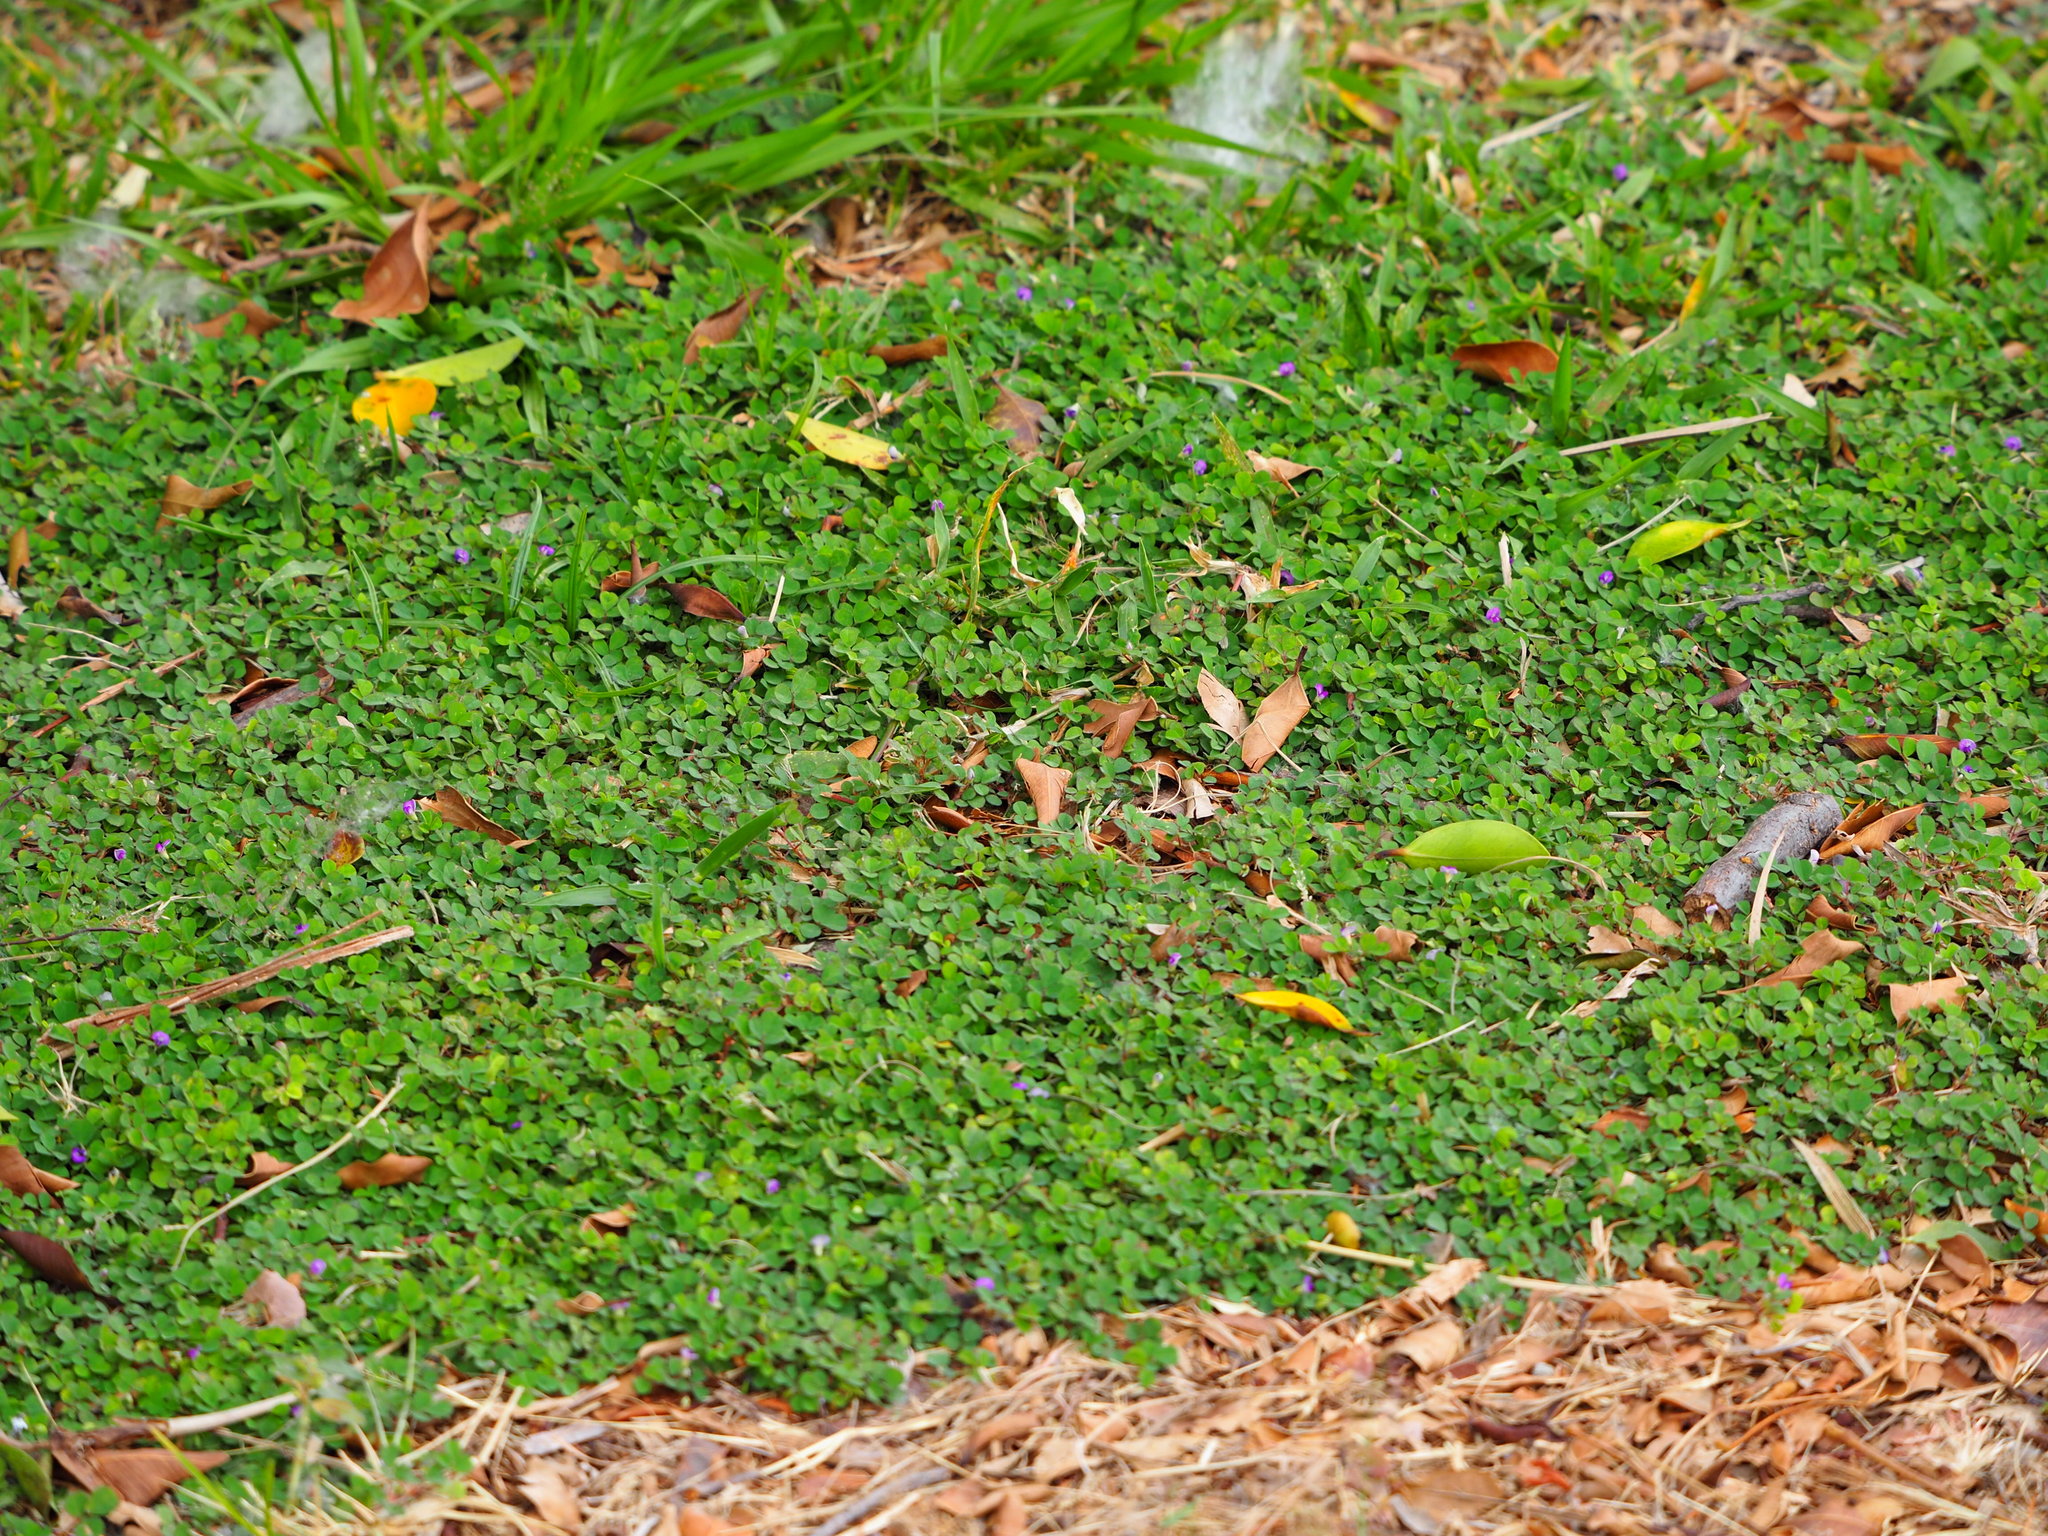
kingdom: Plantae
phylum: Tracheophyta
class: Magnoliopsida
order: Fabales
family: Fabaceae
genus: Grona
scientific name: Grona triflora
